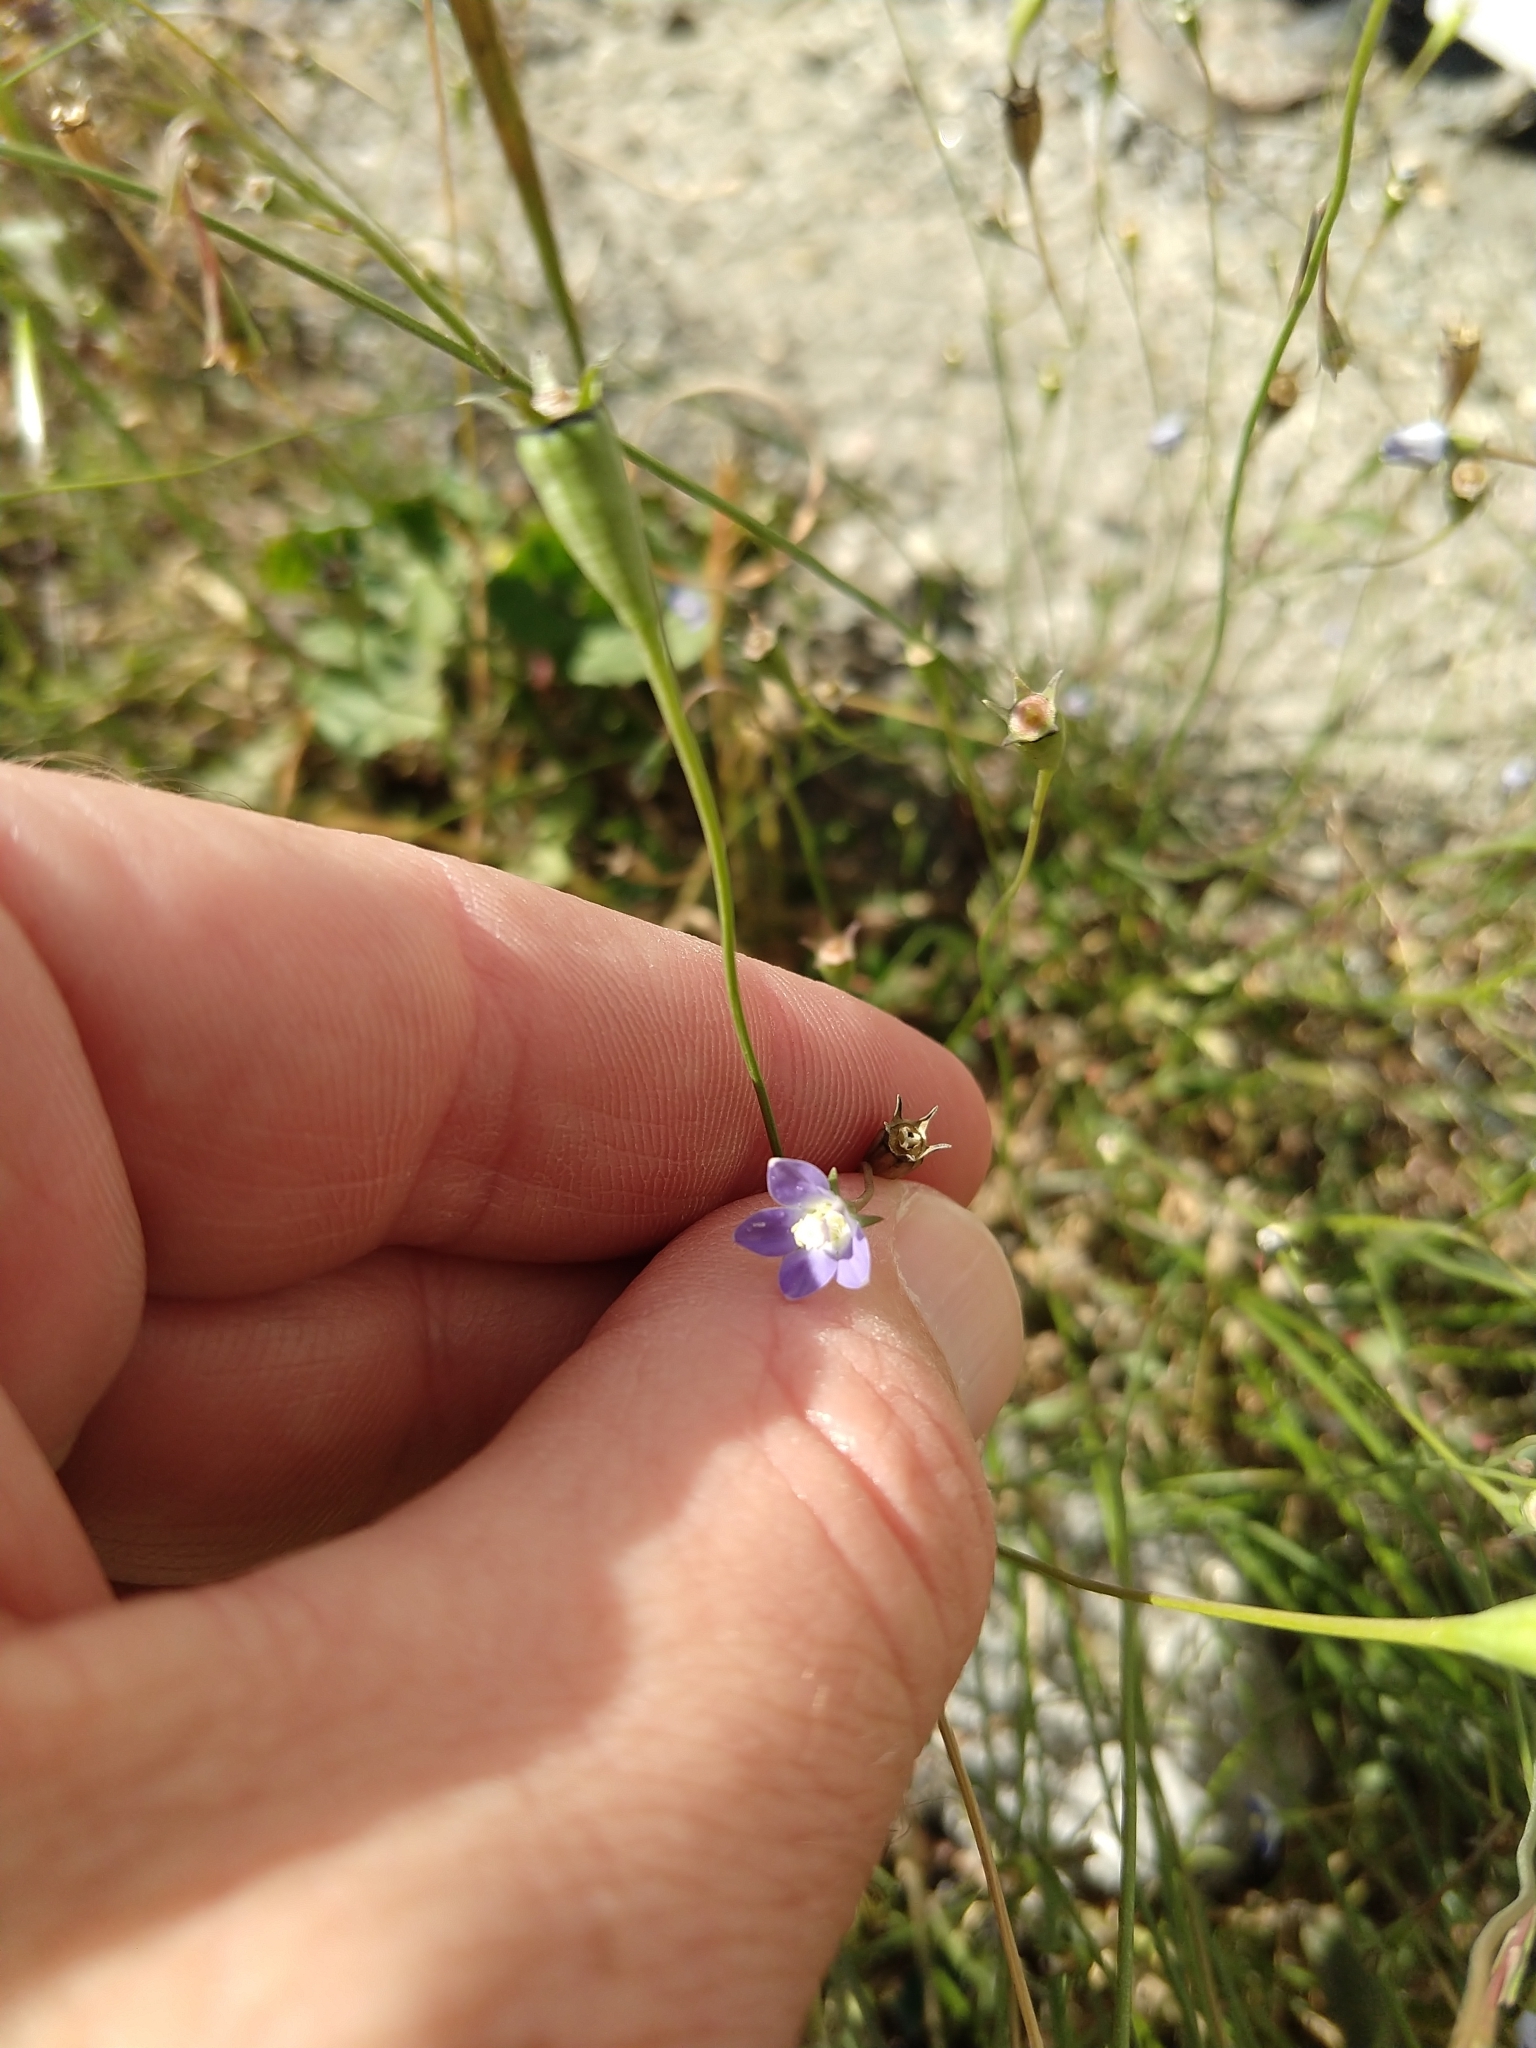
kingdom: Plantae
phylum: Tracheophyta
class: Magnoliopsida
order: Asterales
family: Campanulaceae
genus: Wahlenbergia
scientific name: Wahlenbergia marginata
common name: Southern rockbell
